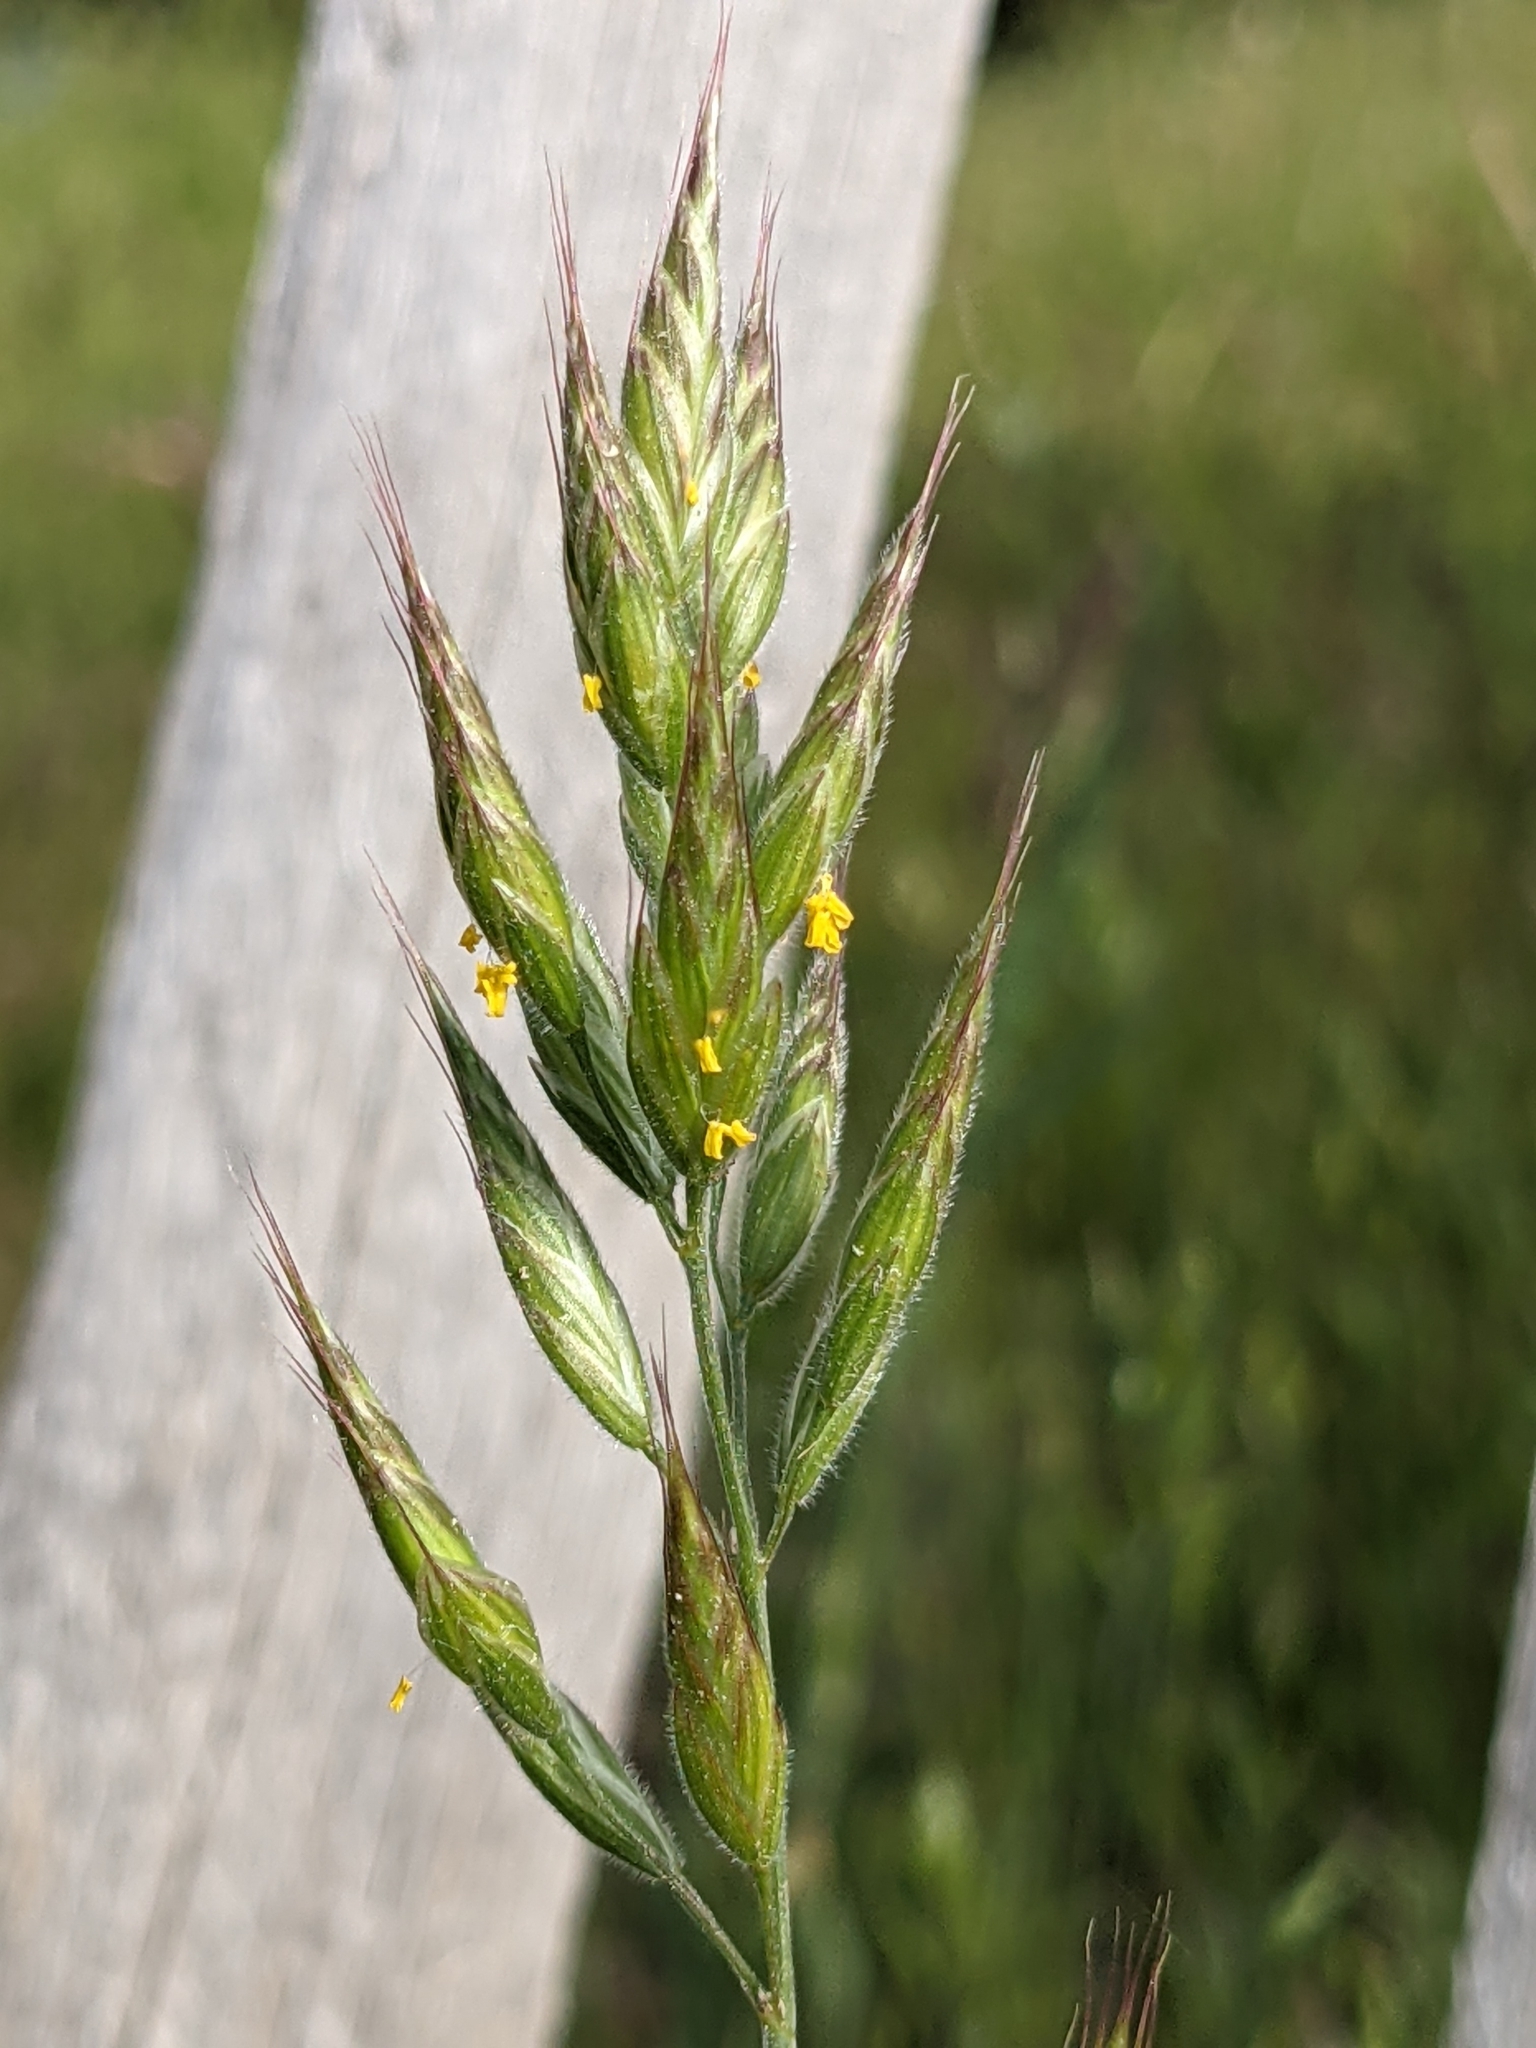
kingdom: Plantae
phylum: Tracheophyta
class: Liliopsida
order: Poales
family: Poaceae
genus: Bromus
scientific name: Bromus hordeaceus
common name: Soft brome
